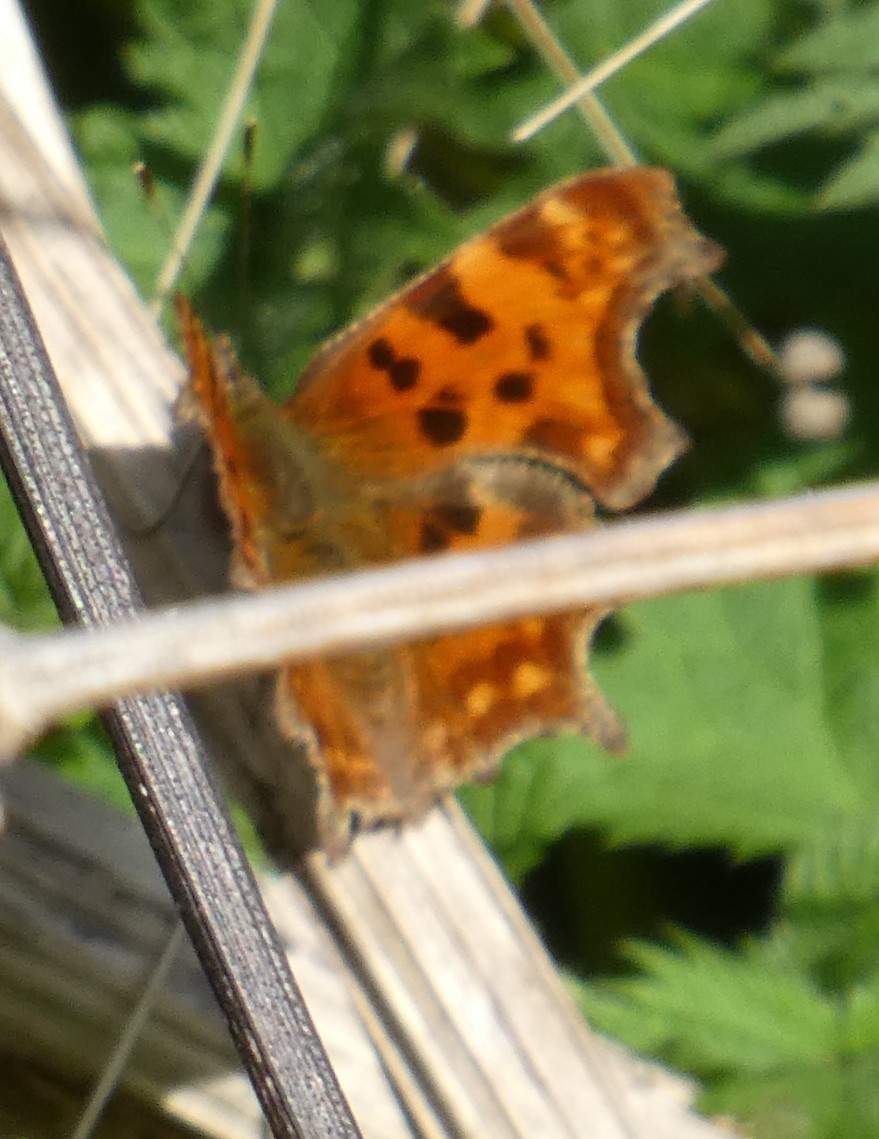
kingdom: Animalia
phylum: Arthropoda
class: Insecta
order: Lepidoptera
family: Nymphalidae
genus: Polygonia
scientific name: Polygonia c-album
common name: Comma
